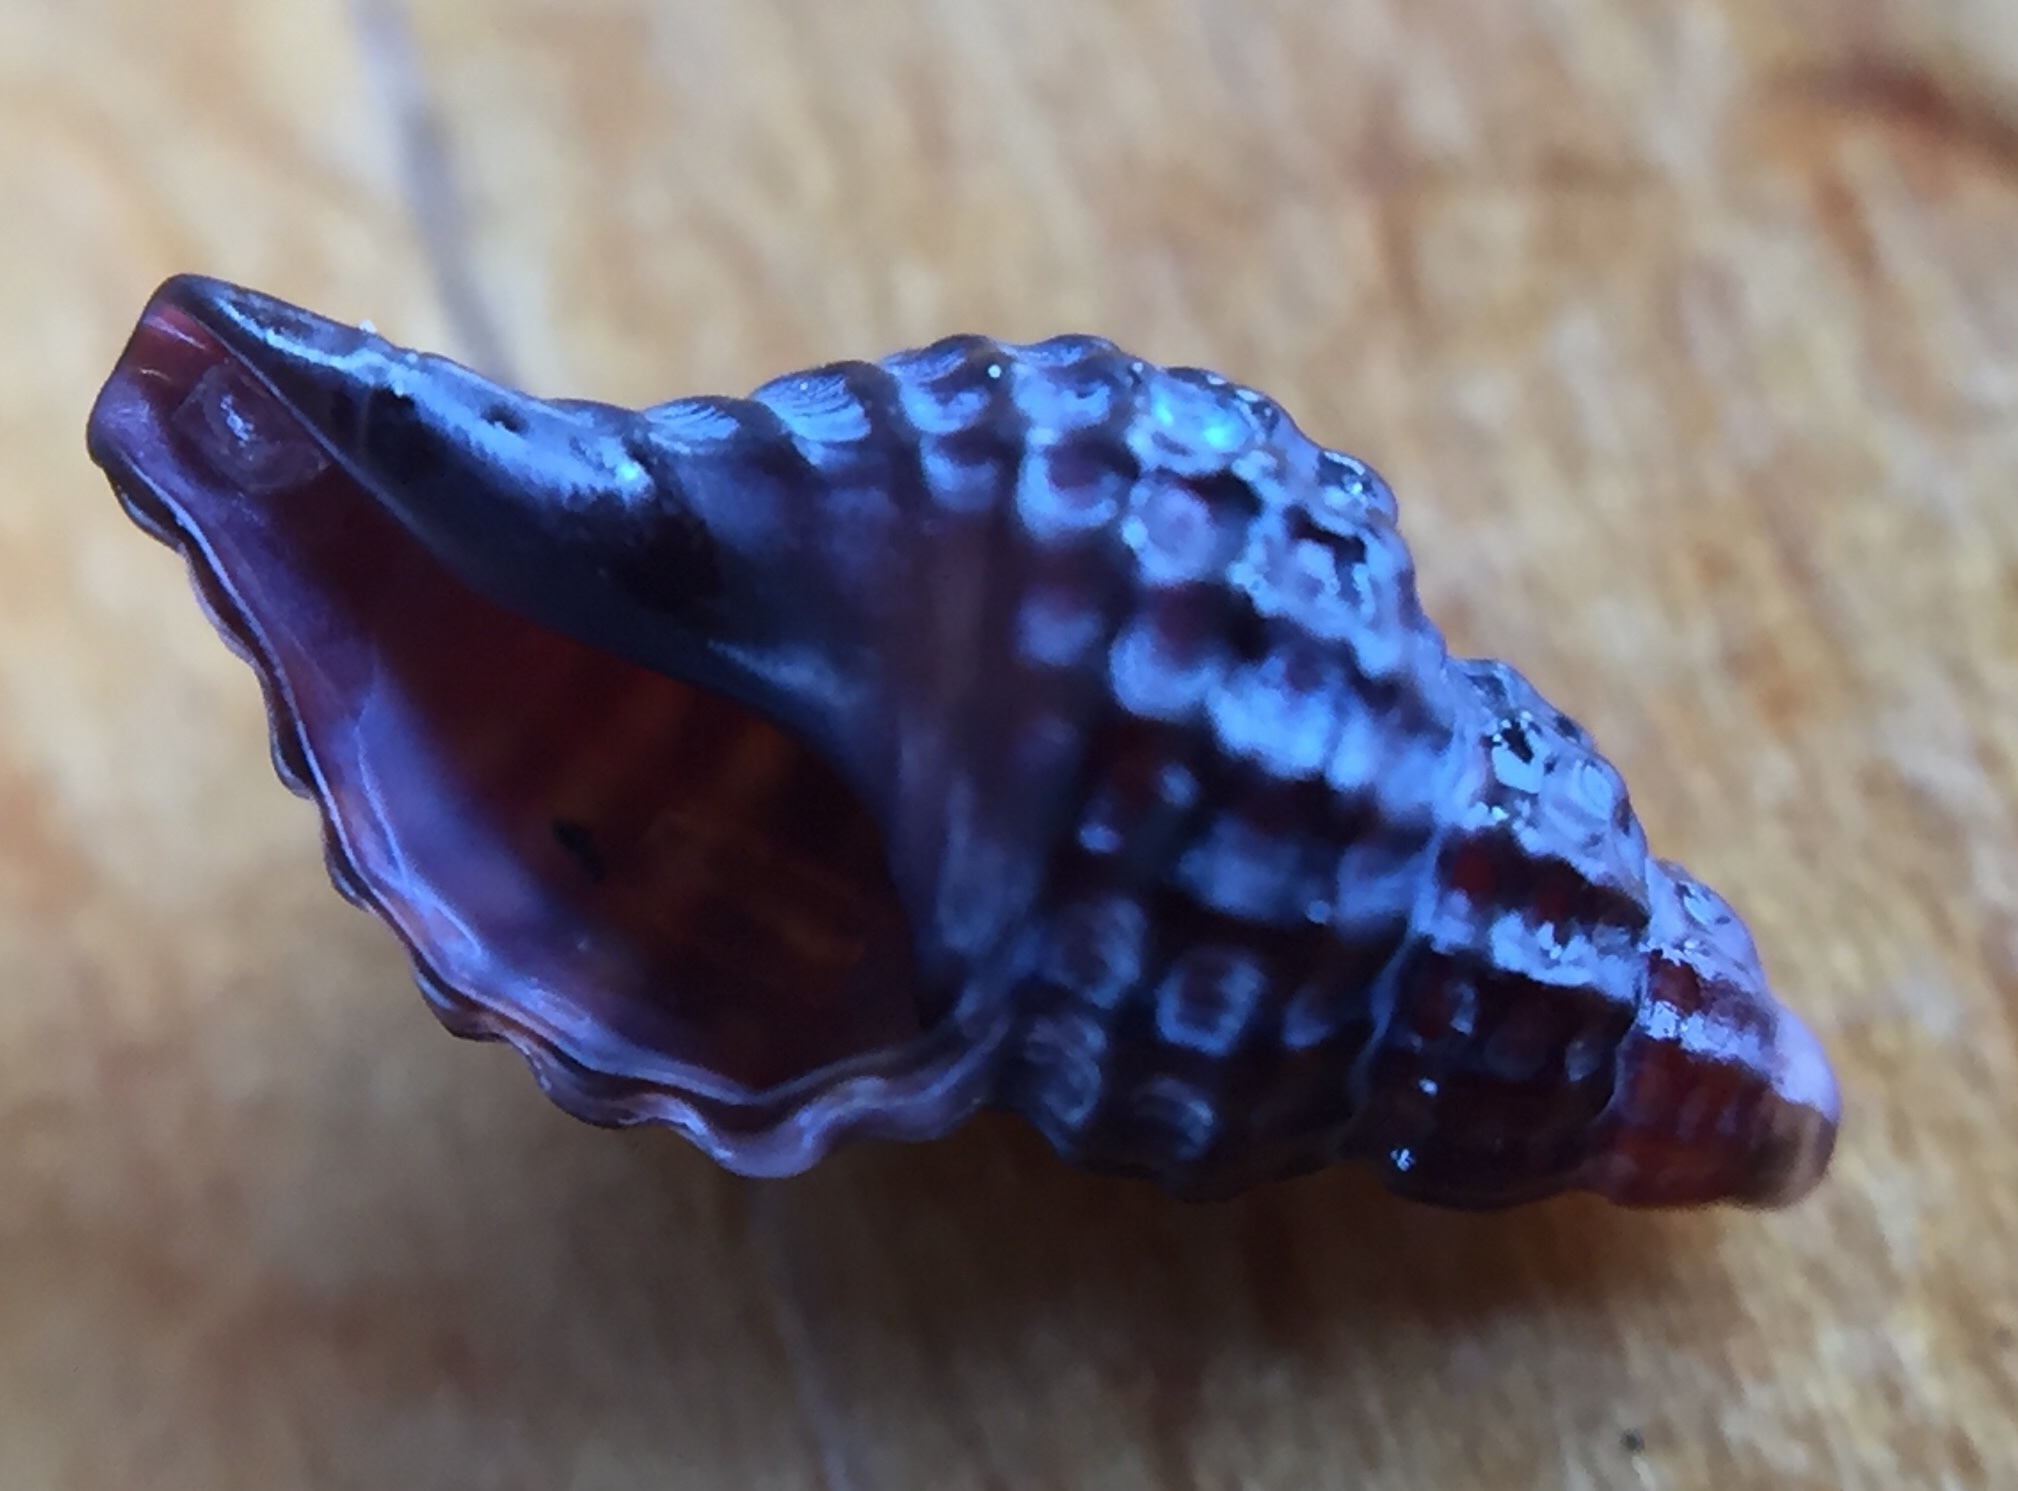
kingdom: Animalia
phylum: Mollusca
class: Gastropoda
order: Neogastropoda
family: Muricidae
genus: Xymene
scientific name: Xymene plebeius
